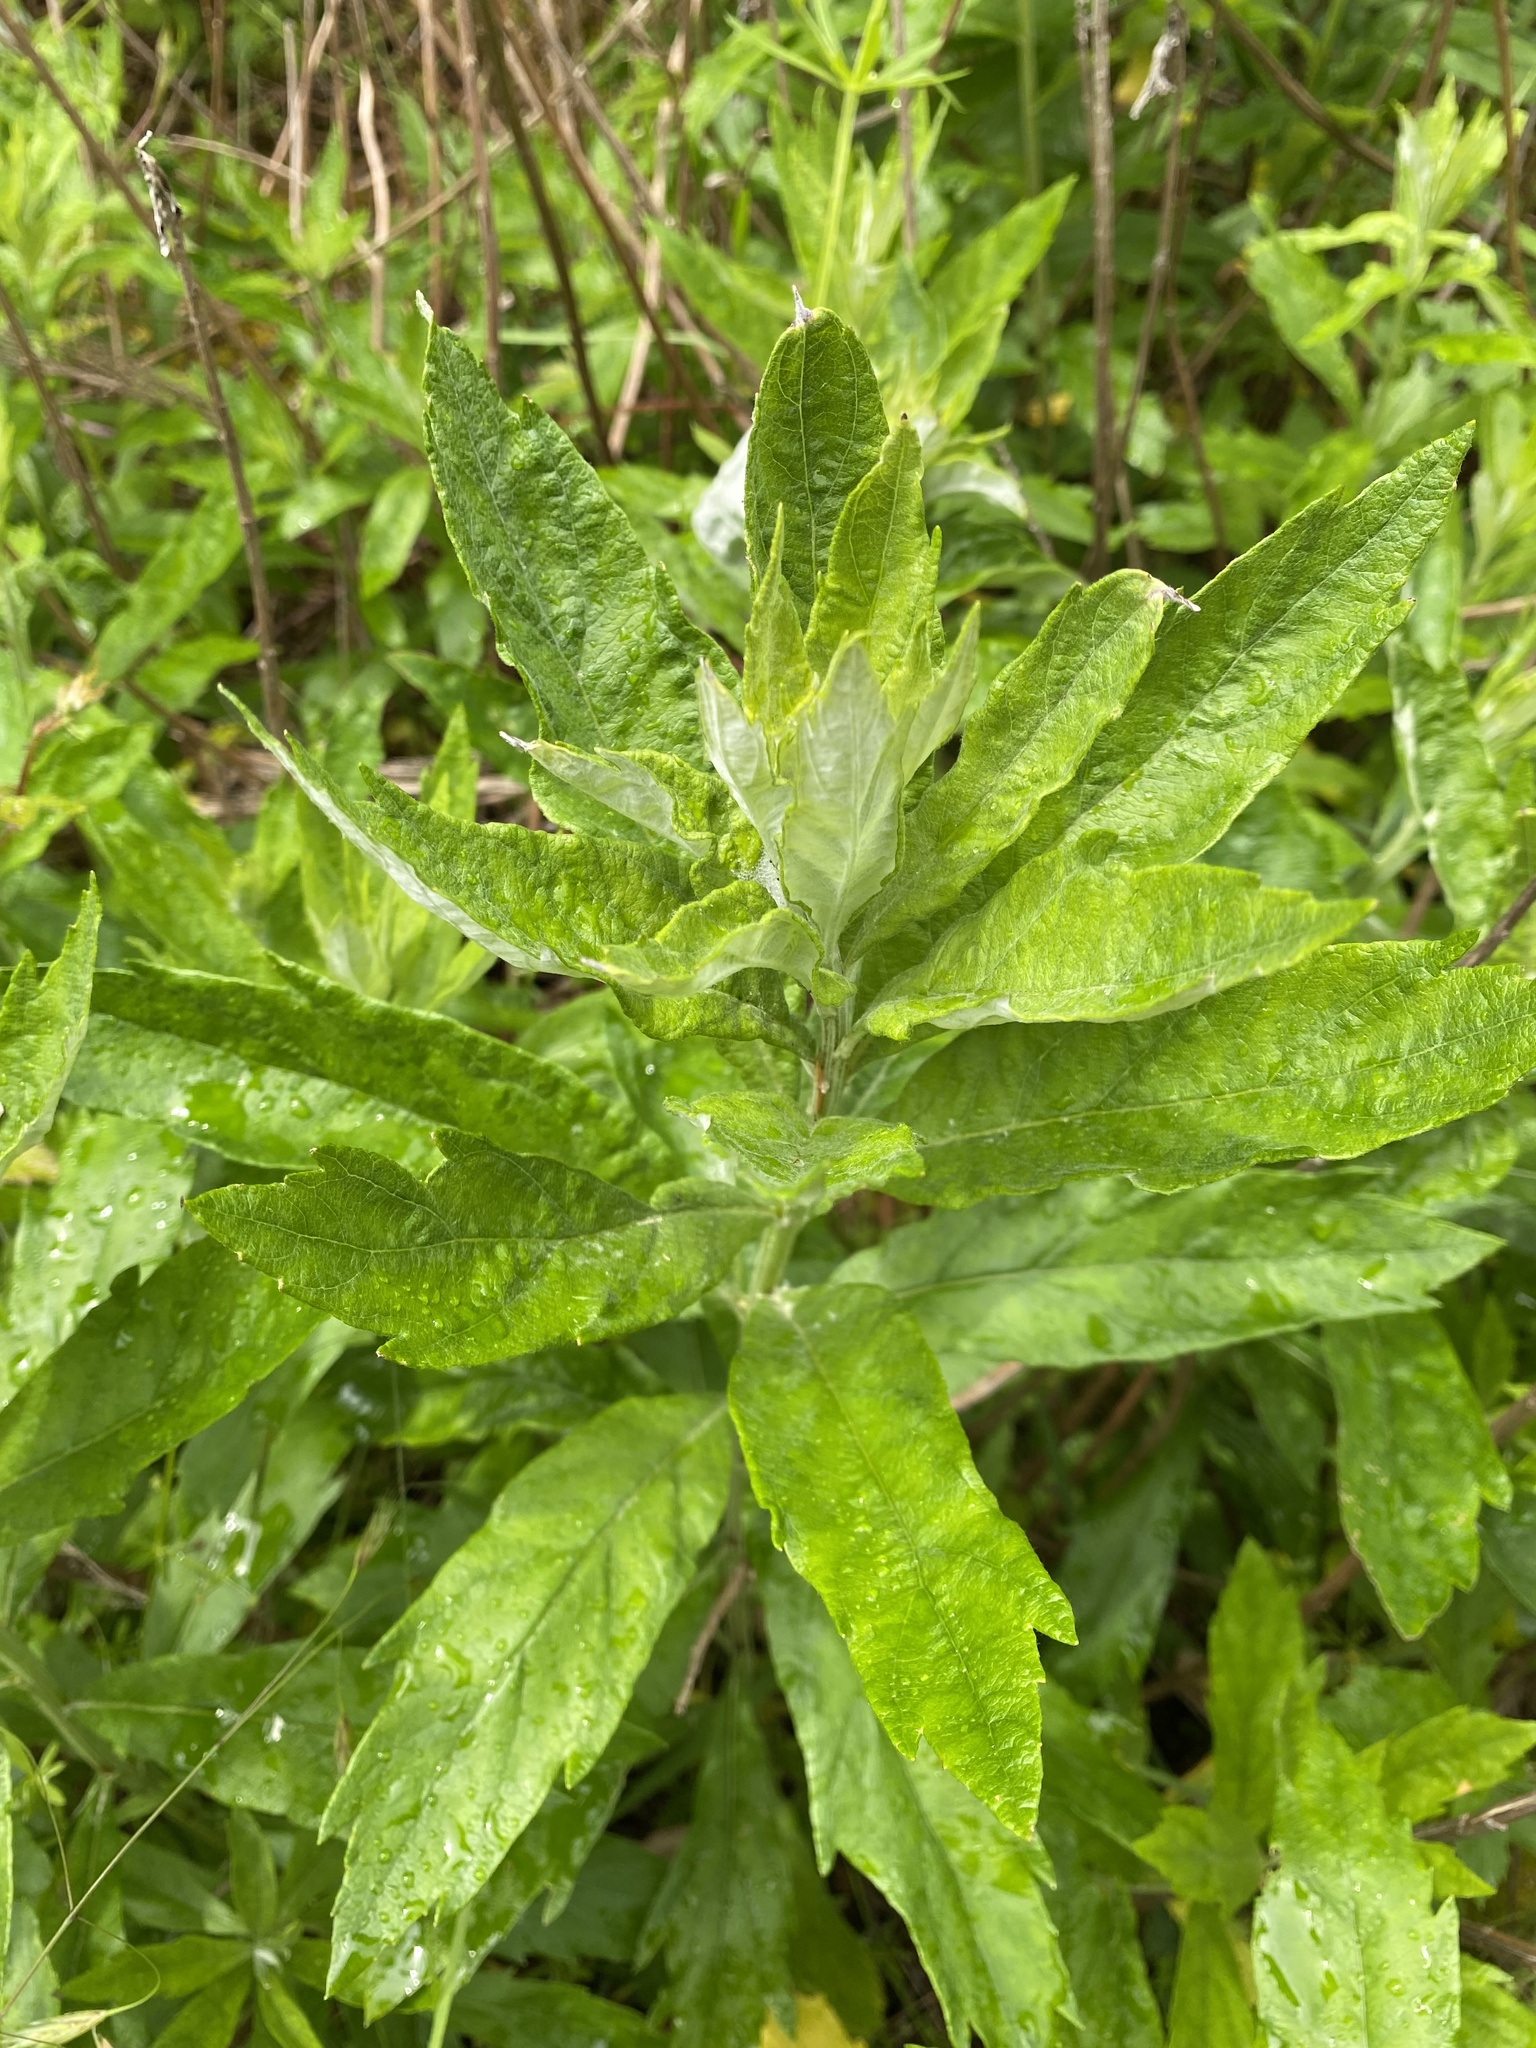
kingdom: Plantae
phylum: Tracheophyta
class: Magnoliopsida
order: Asterales
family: Asteraceae
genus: Artemisia
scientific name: Artemisia suksdorfii
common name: Suksdorf sagewort
